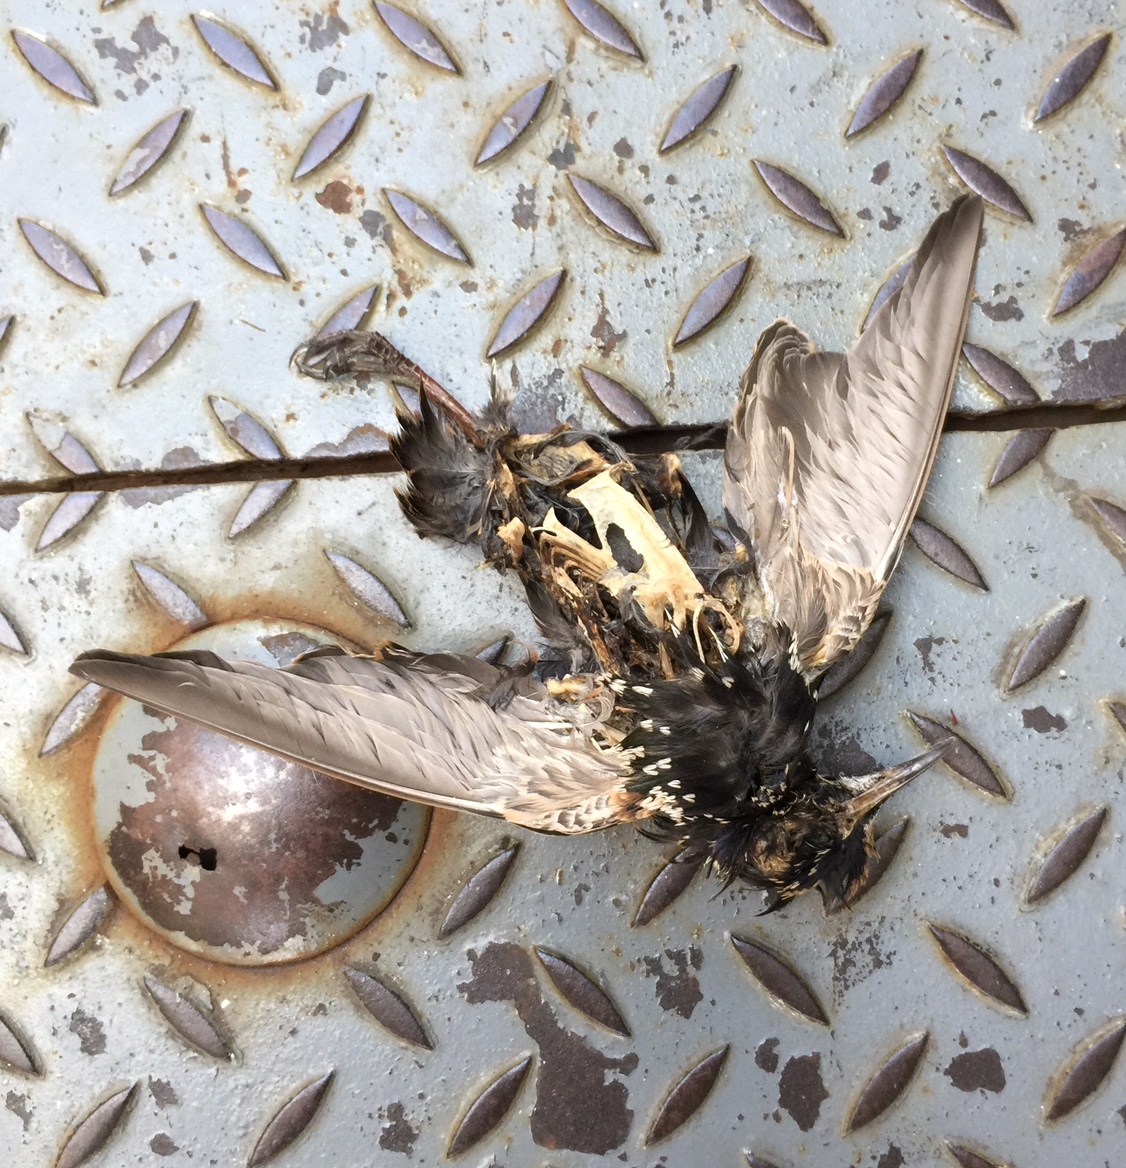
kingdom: Animalia
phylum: Chordata
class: Aves
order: Passeriformes
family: Sturnidae
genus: Sturnus
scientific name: Sturnus vulgaris
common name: Common starling
